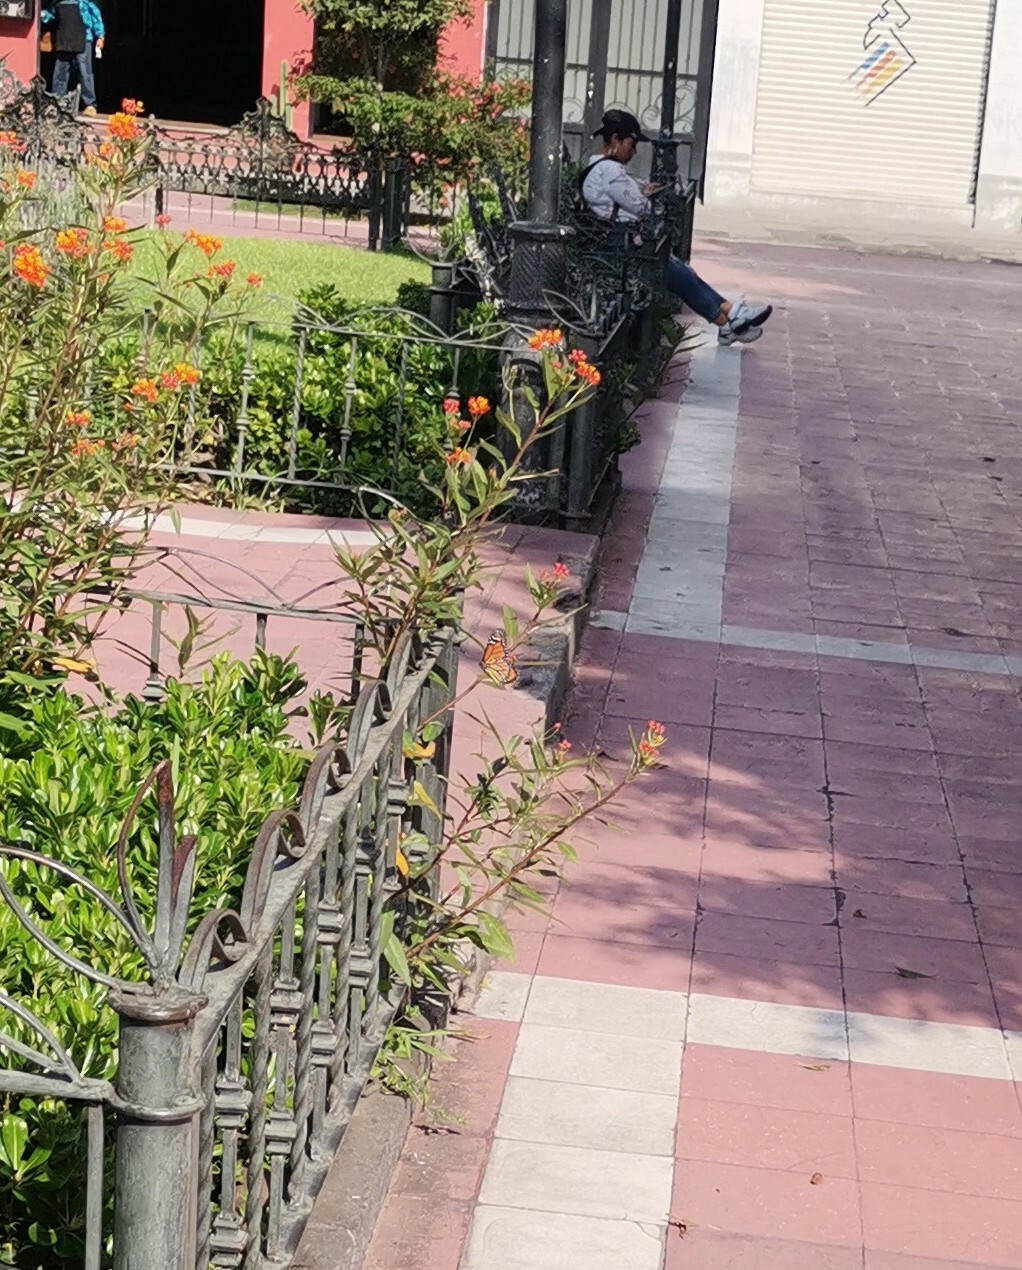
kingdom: Animalia
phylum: Arthropoda
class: Insecta
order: Lepidoptera
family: Nymphalidae
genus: Danaus
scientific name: Danaus plexippus
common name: Monarch
